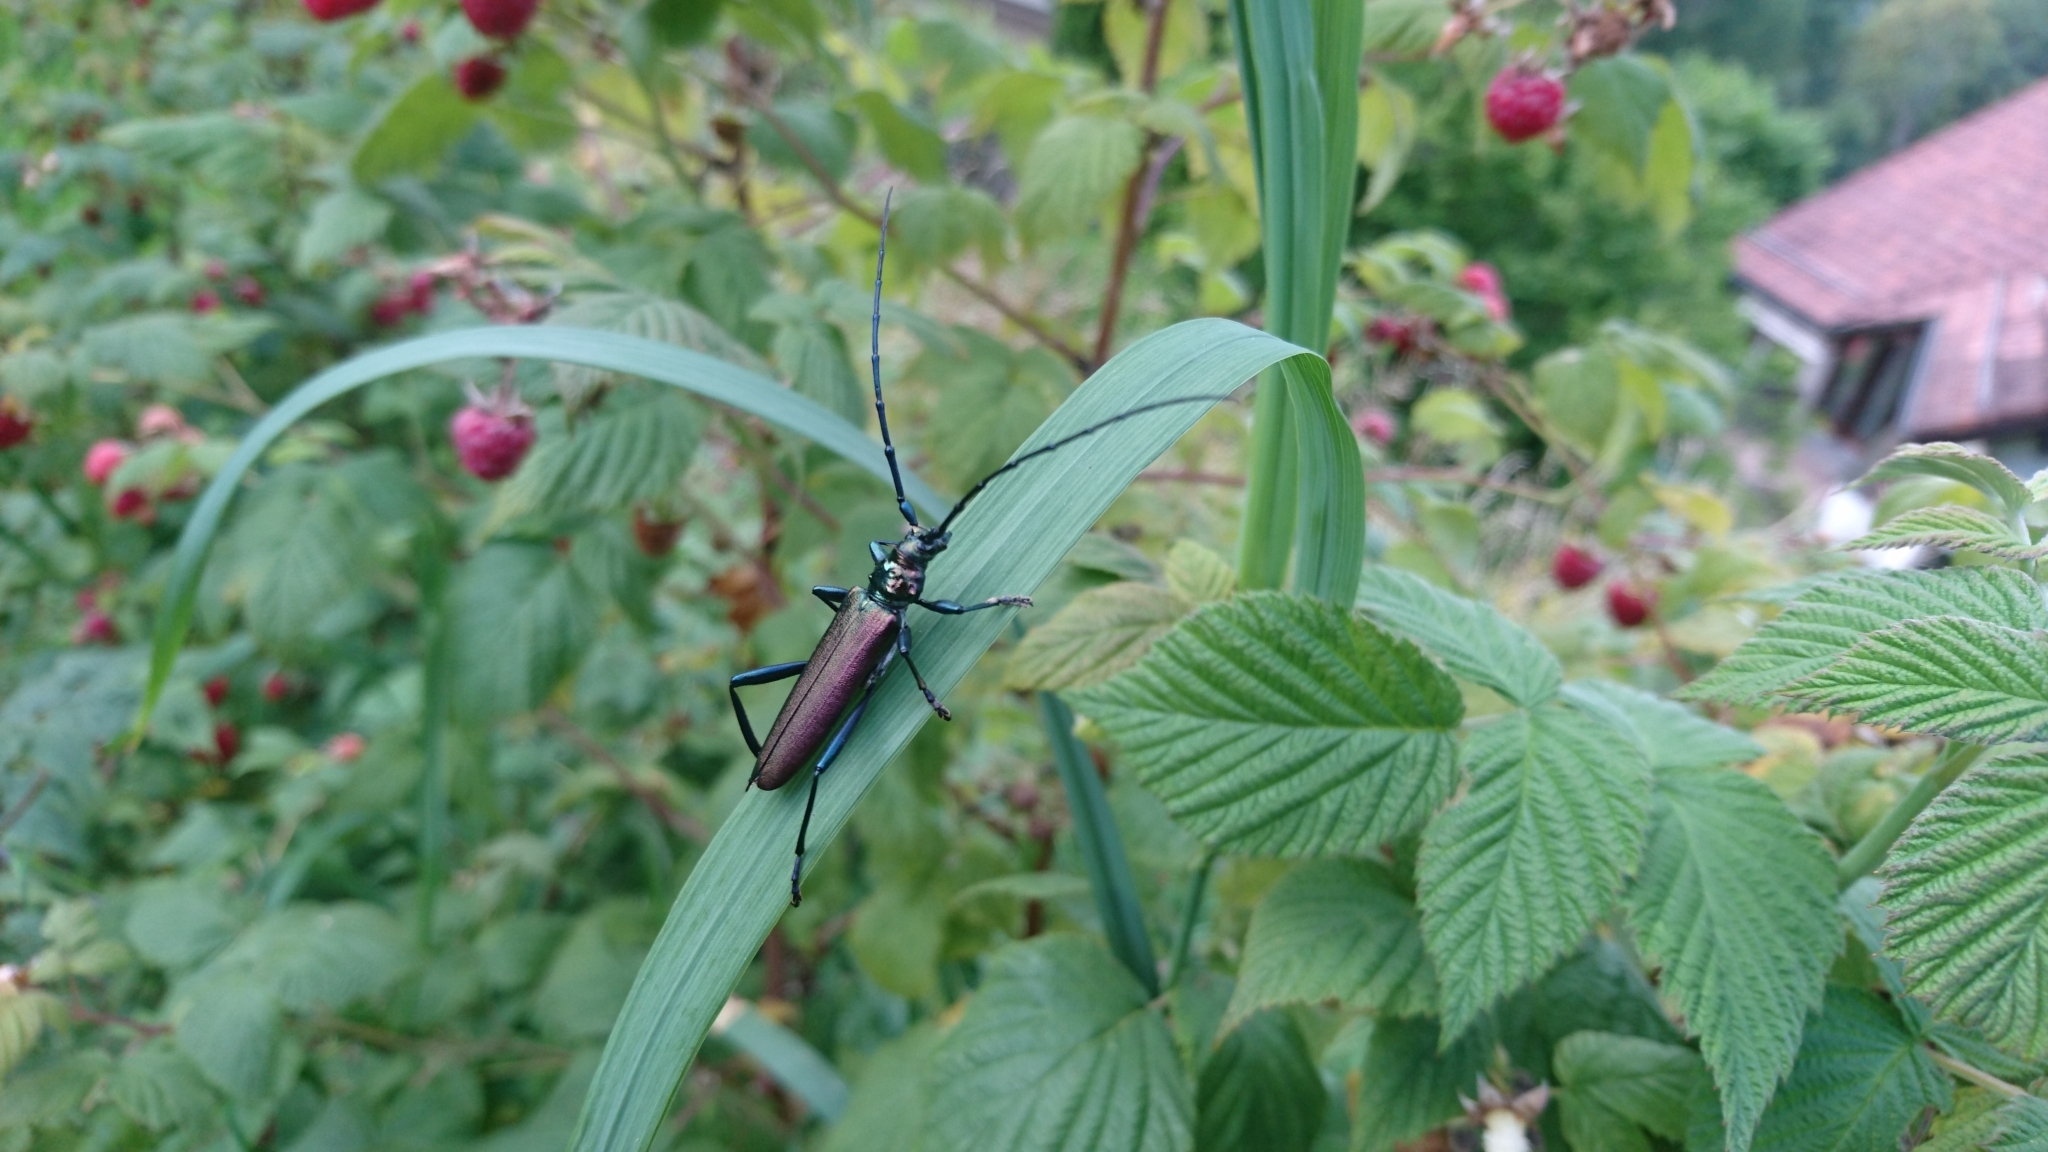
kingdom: Animalia
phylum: Arthropoda
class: Insecta
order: Coleoptera
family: Cerambycidae
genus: Aromia
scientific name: Aromia moschata
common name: Musk beetle
